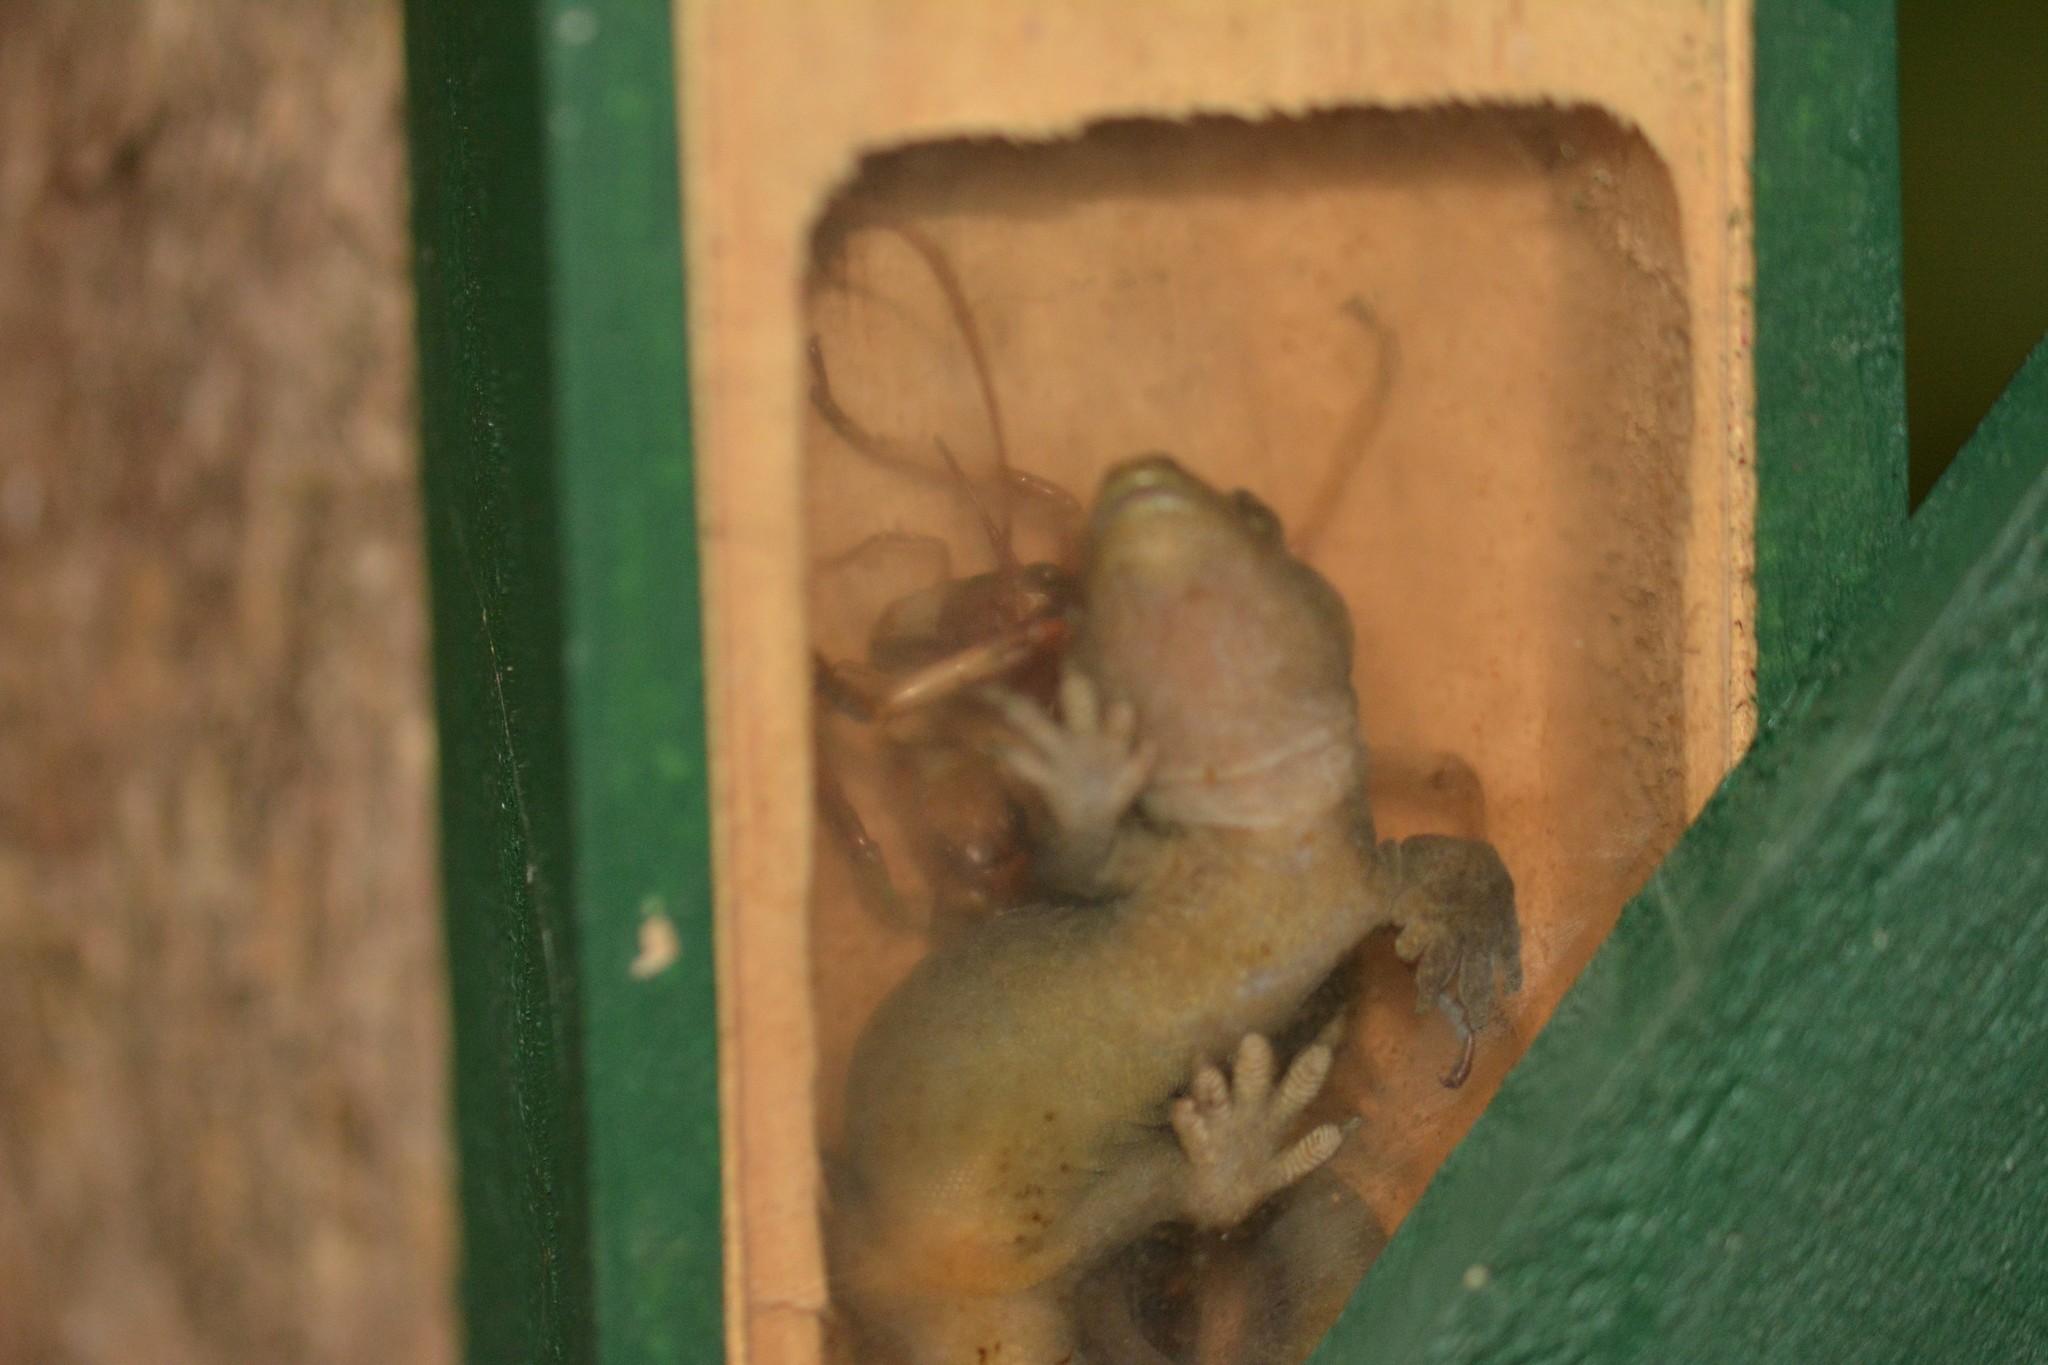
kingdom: Animalia
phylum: Chordata
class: Squamata
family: Diplodactylidae
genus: Woodworthia
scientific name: Woodworthia maculata
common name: Raukawa gecko
